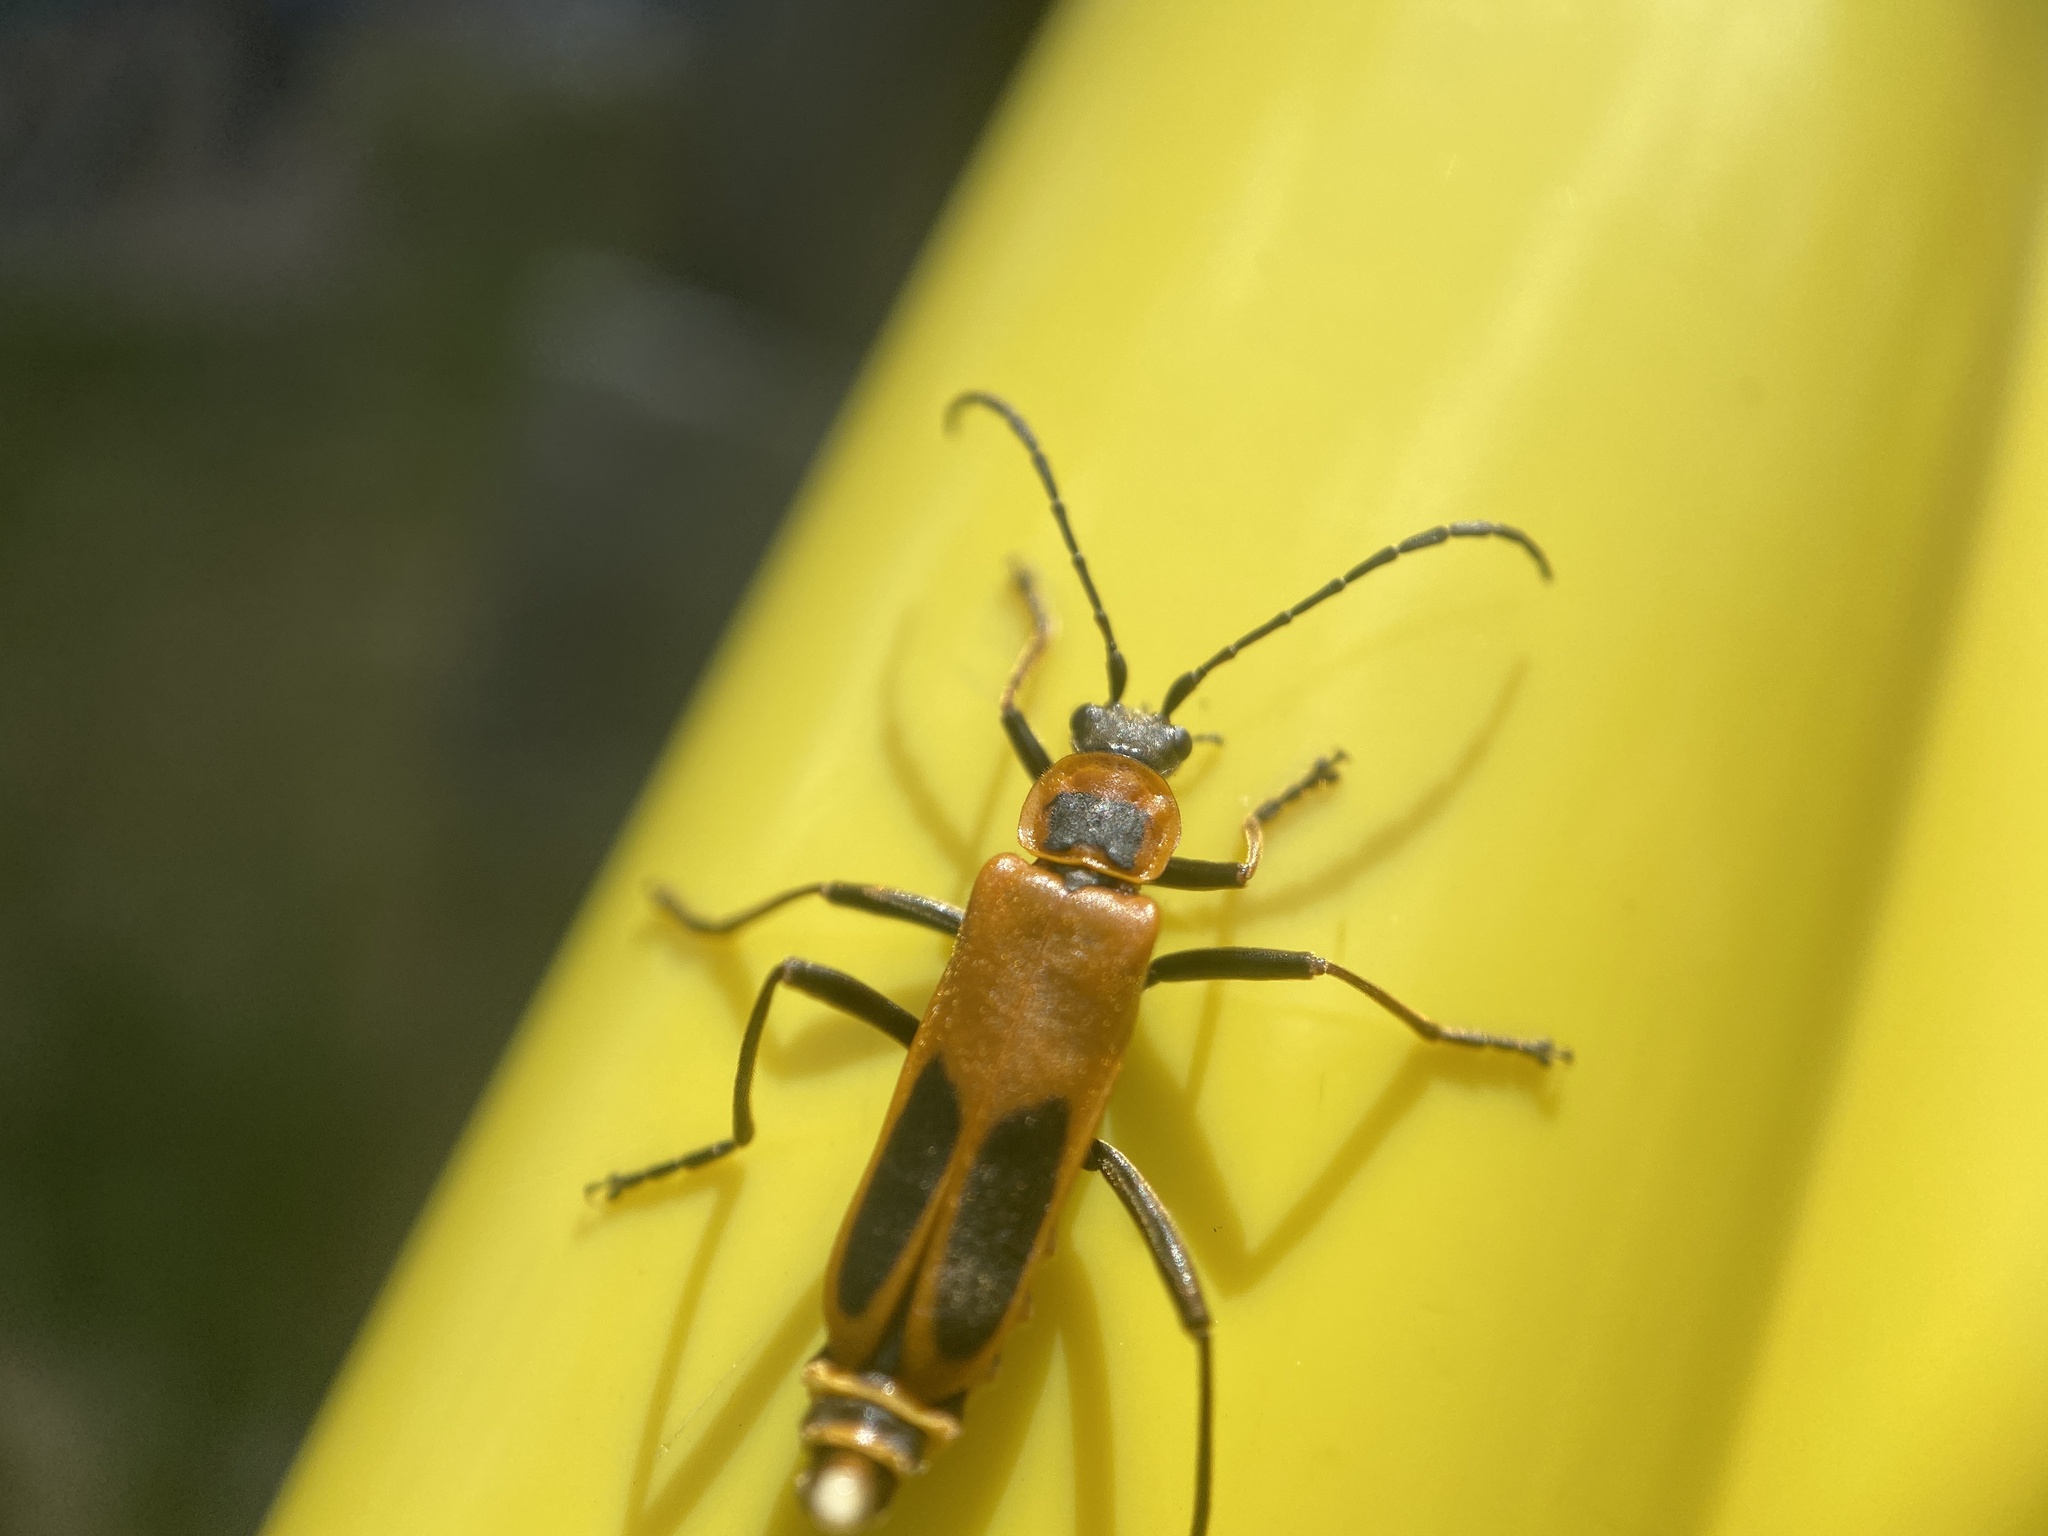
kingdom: Animalia
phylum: Arthropoda
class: Insecta
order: Coleoptera
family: Cantharidae
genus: Chauliognathus
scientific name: Chauliognathus pensylvanicus
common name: Goldenrod soldier beetle
